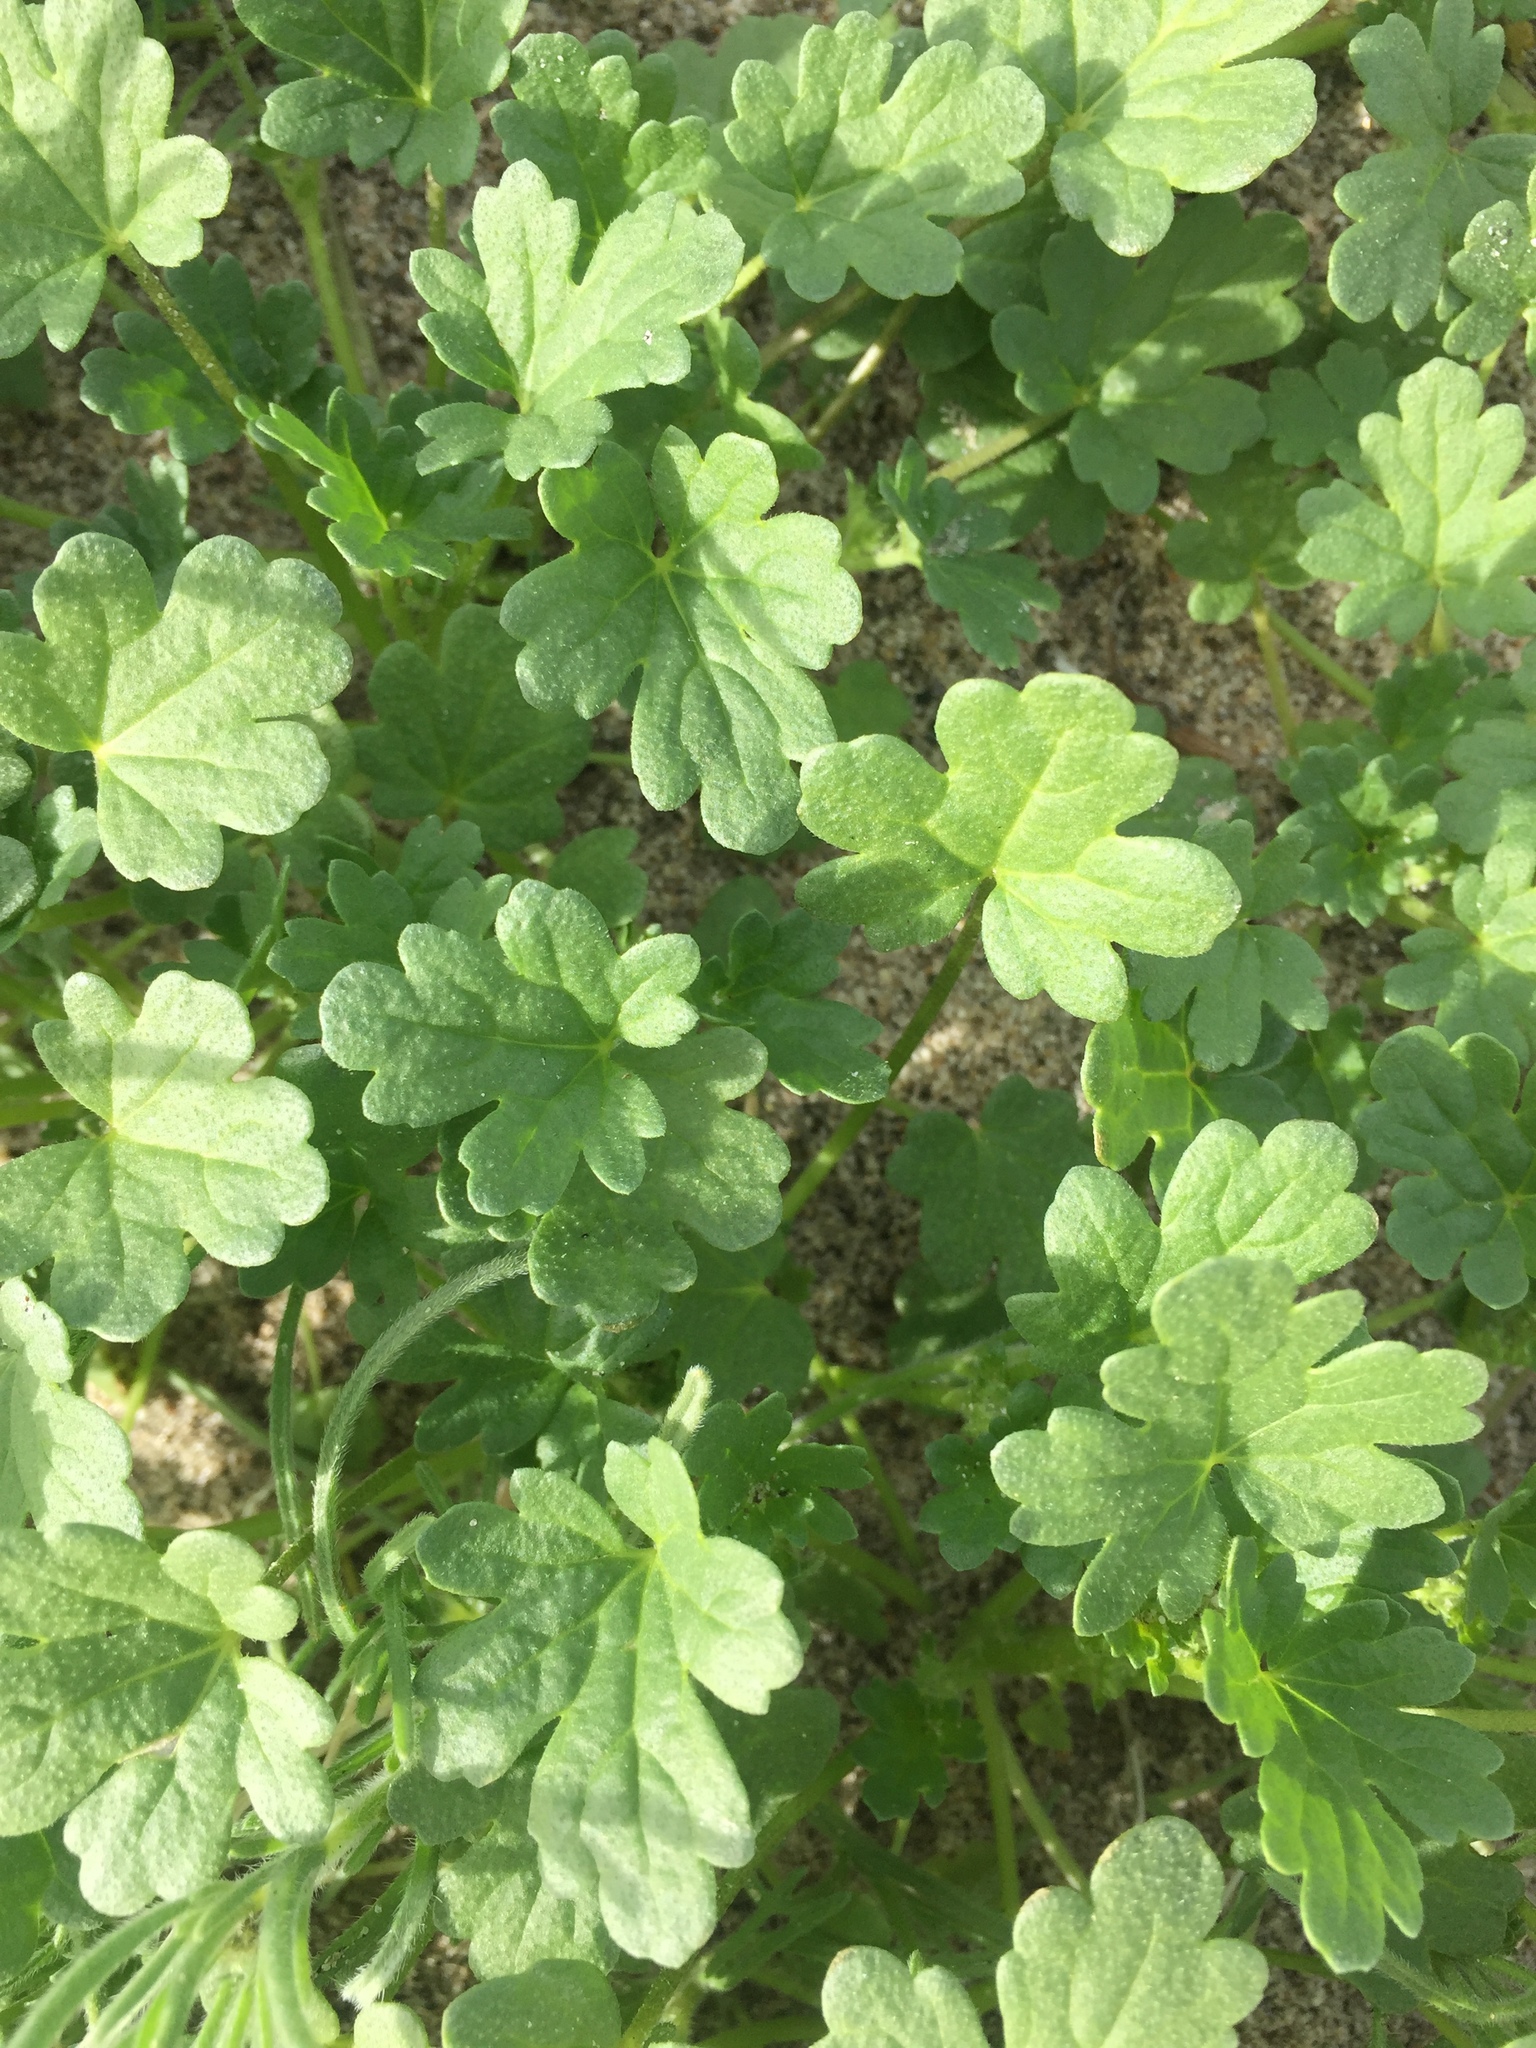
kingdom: Plantae
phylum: Tracheophyta
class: Magnoliopsida
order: Malvales
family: Malvaceae
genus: Eremalche
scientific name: Eremalche exilis
